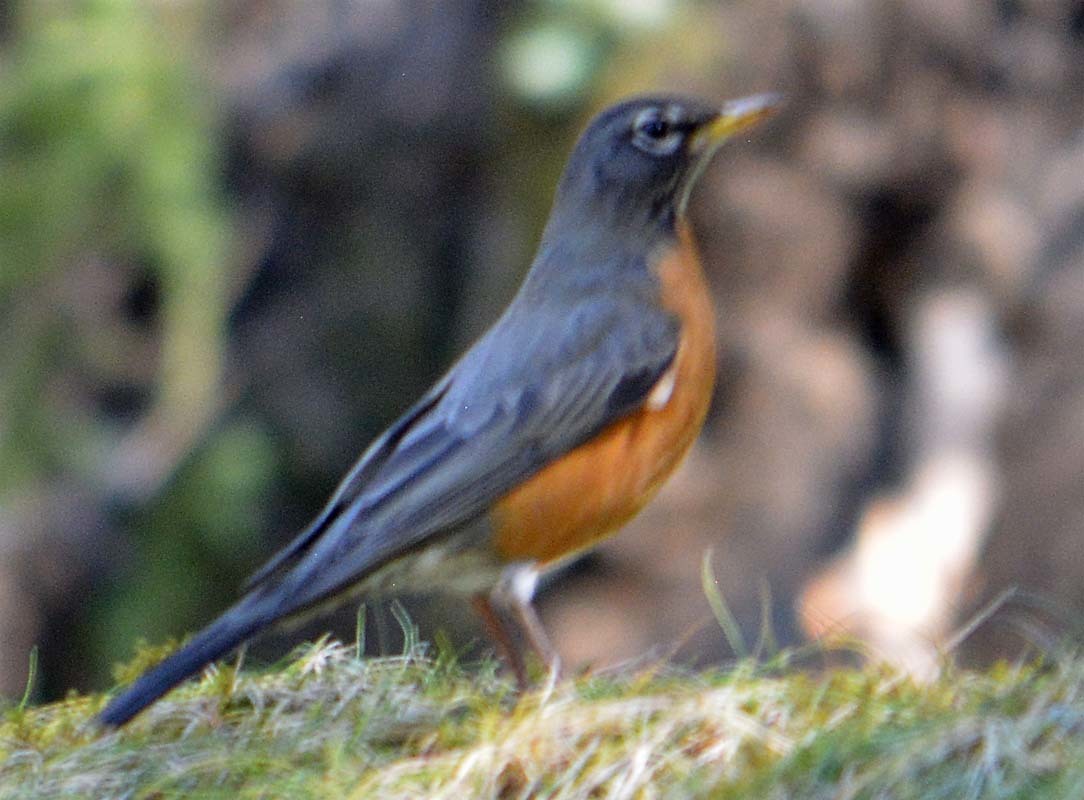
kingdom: Animalia
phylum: Chordata
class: Aves
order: Passeriformes
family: Turdidae
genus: Turdus
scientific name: Turdus migratorius
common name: American robin
